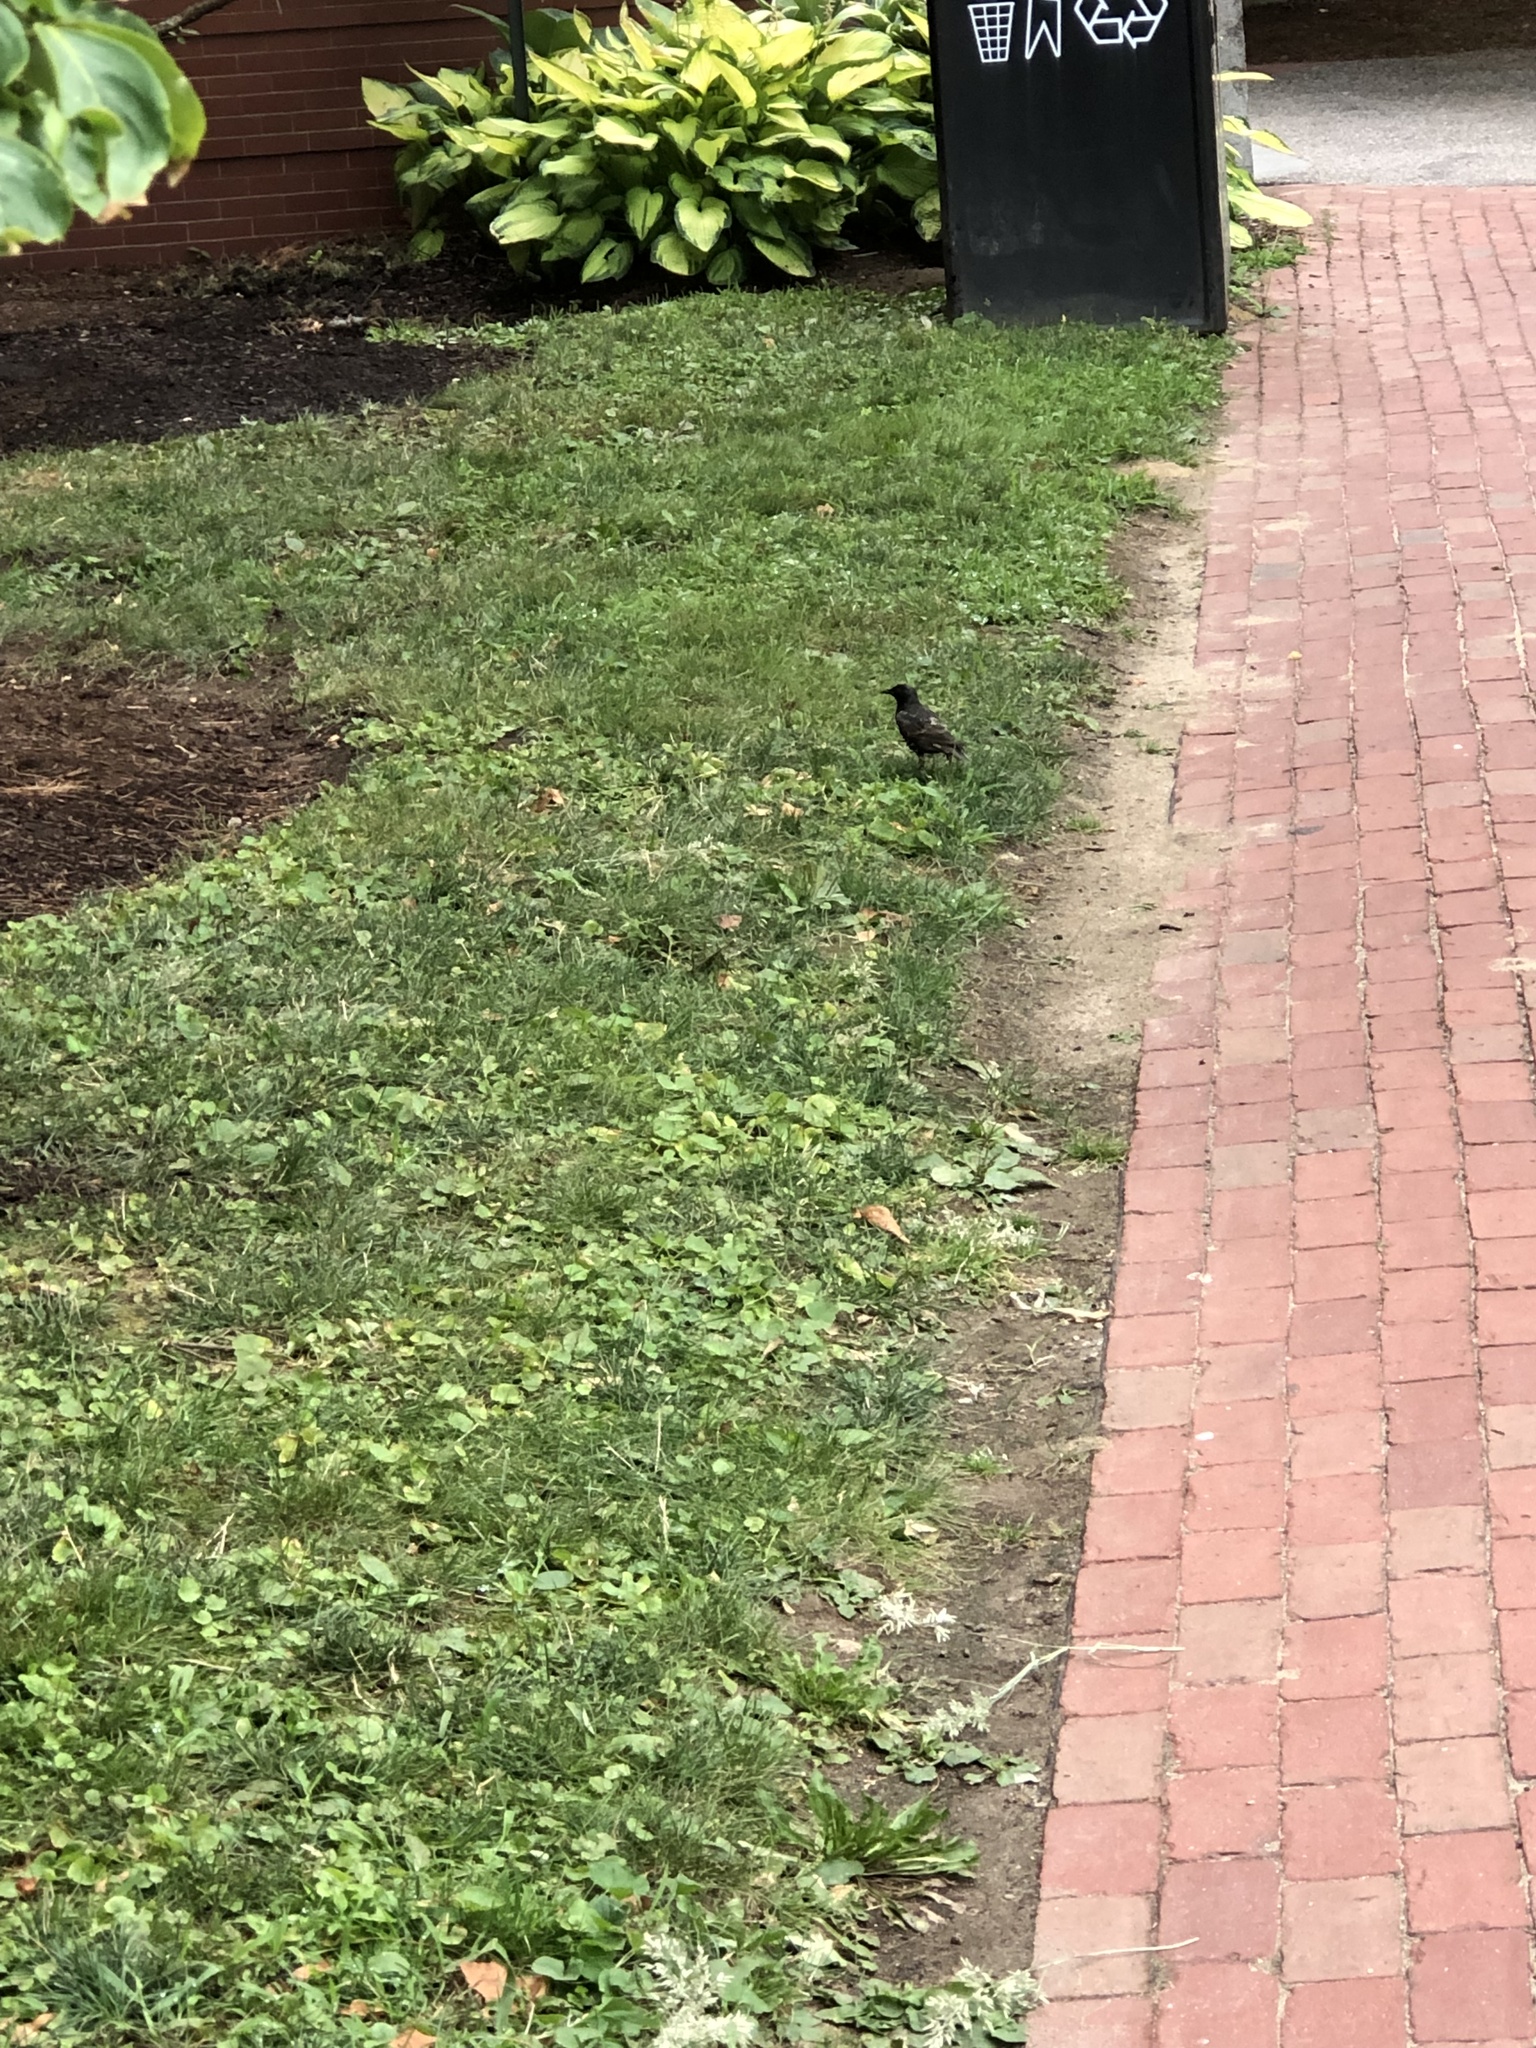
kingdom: Animalia
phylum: Chordata
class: Aves
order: Passeriformes
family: Sturnidae
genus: Sturnus
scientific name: Sturnus vulgaris
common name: Common starling
